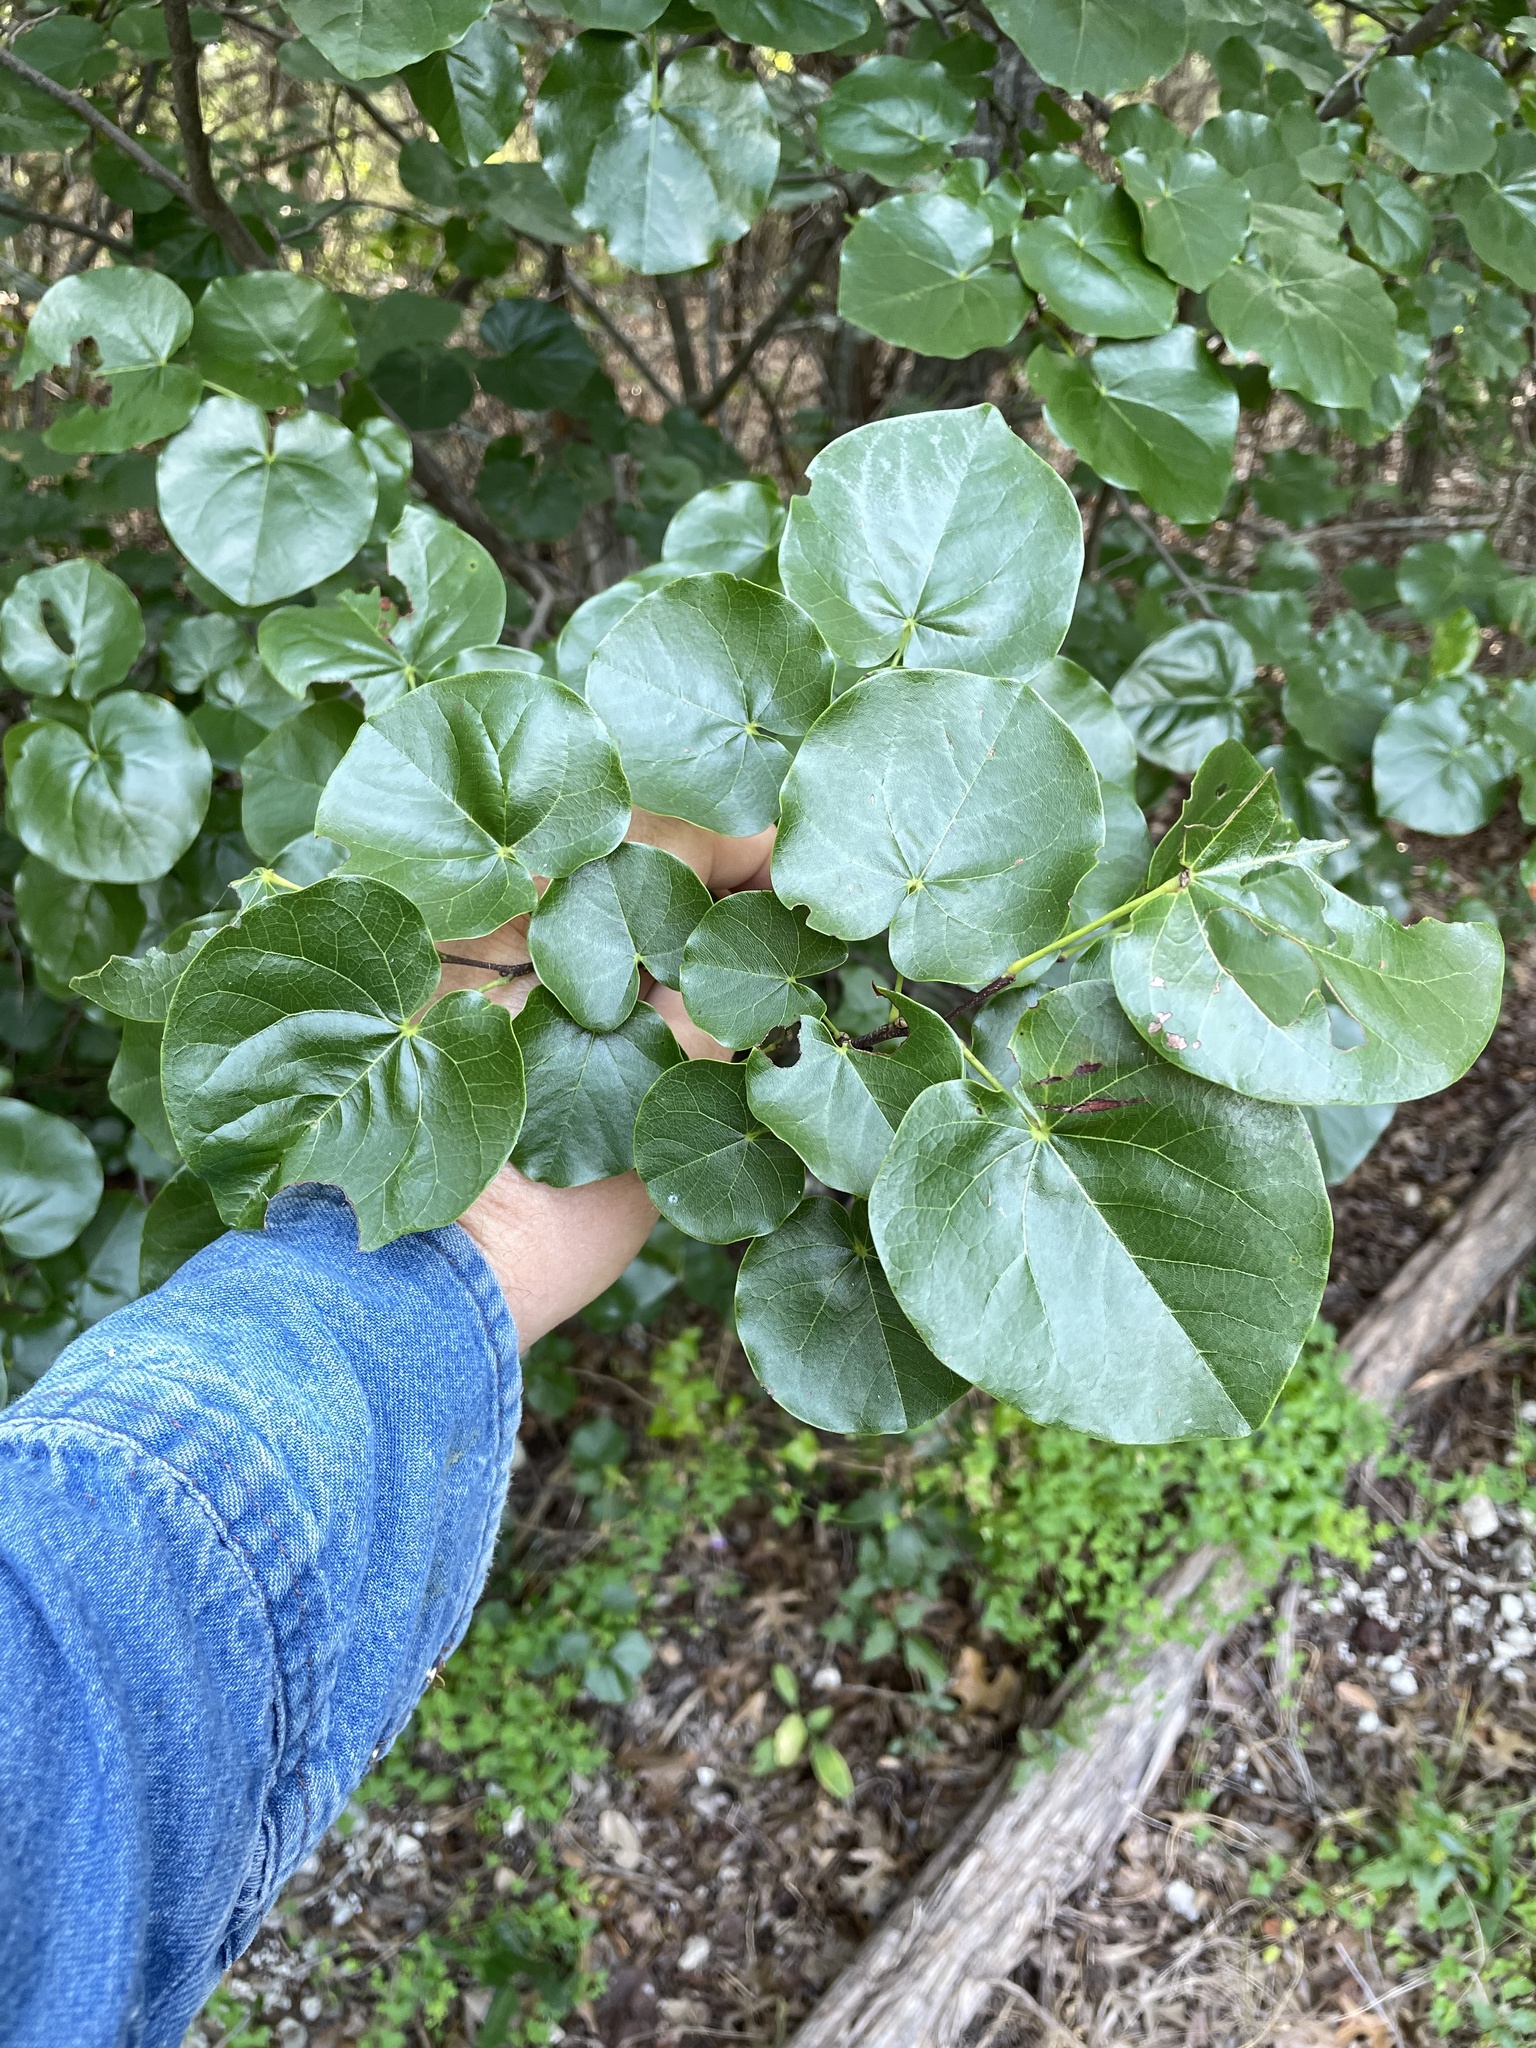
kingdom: Plantae
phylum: Tracheophyta
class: Magnoliopsida
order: Fabales
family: Fabaceae
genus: Cercis
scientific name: Cercis canadensis
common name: Eastern redbud
